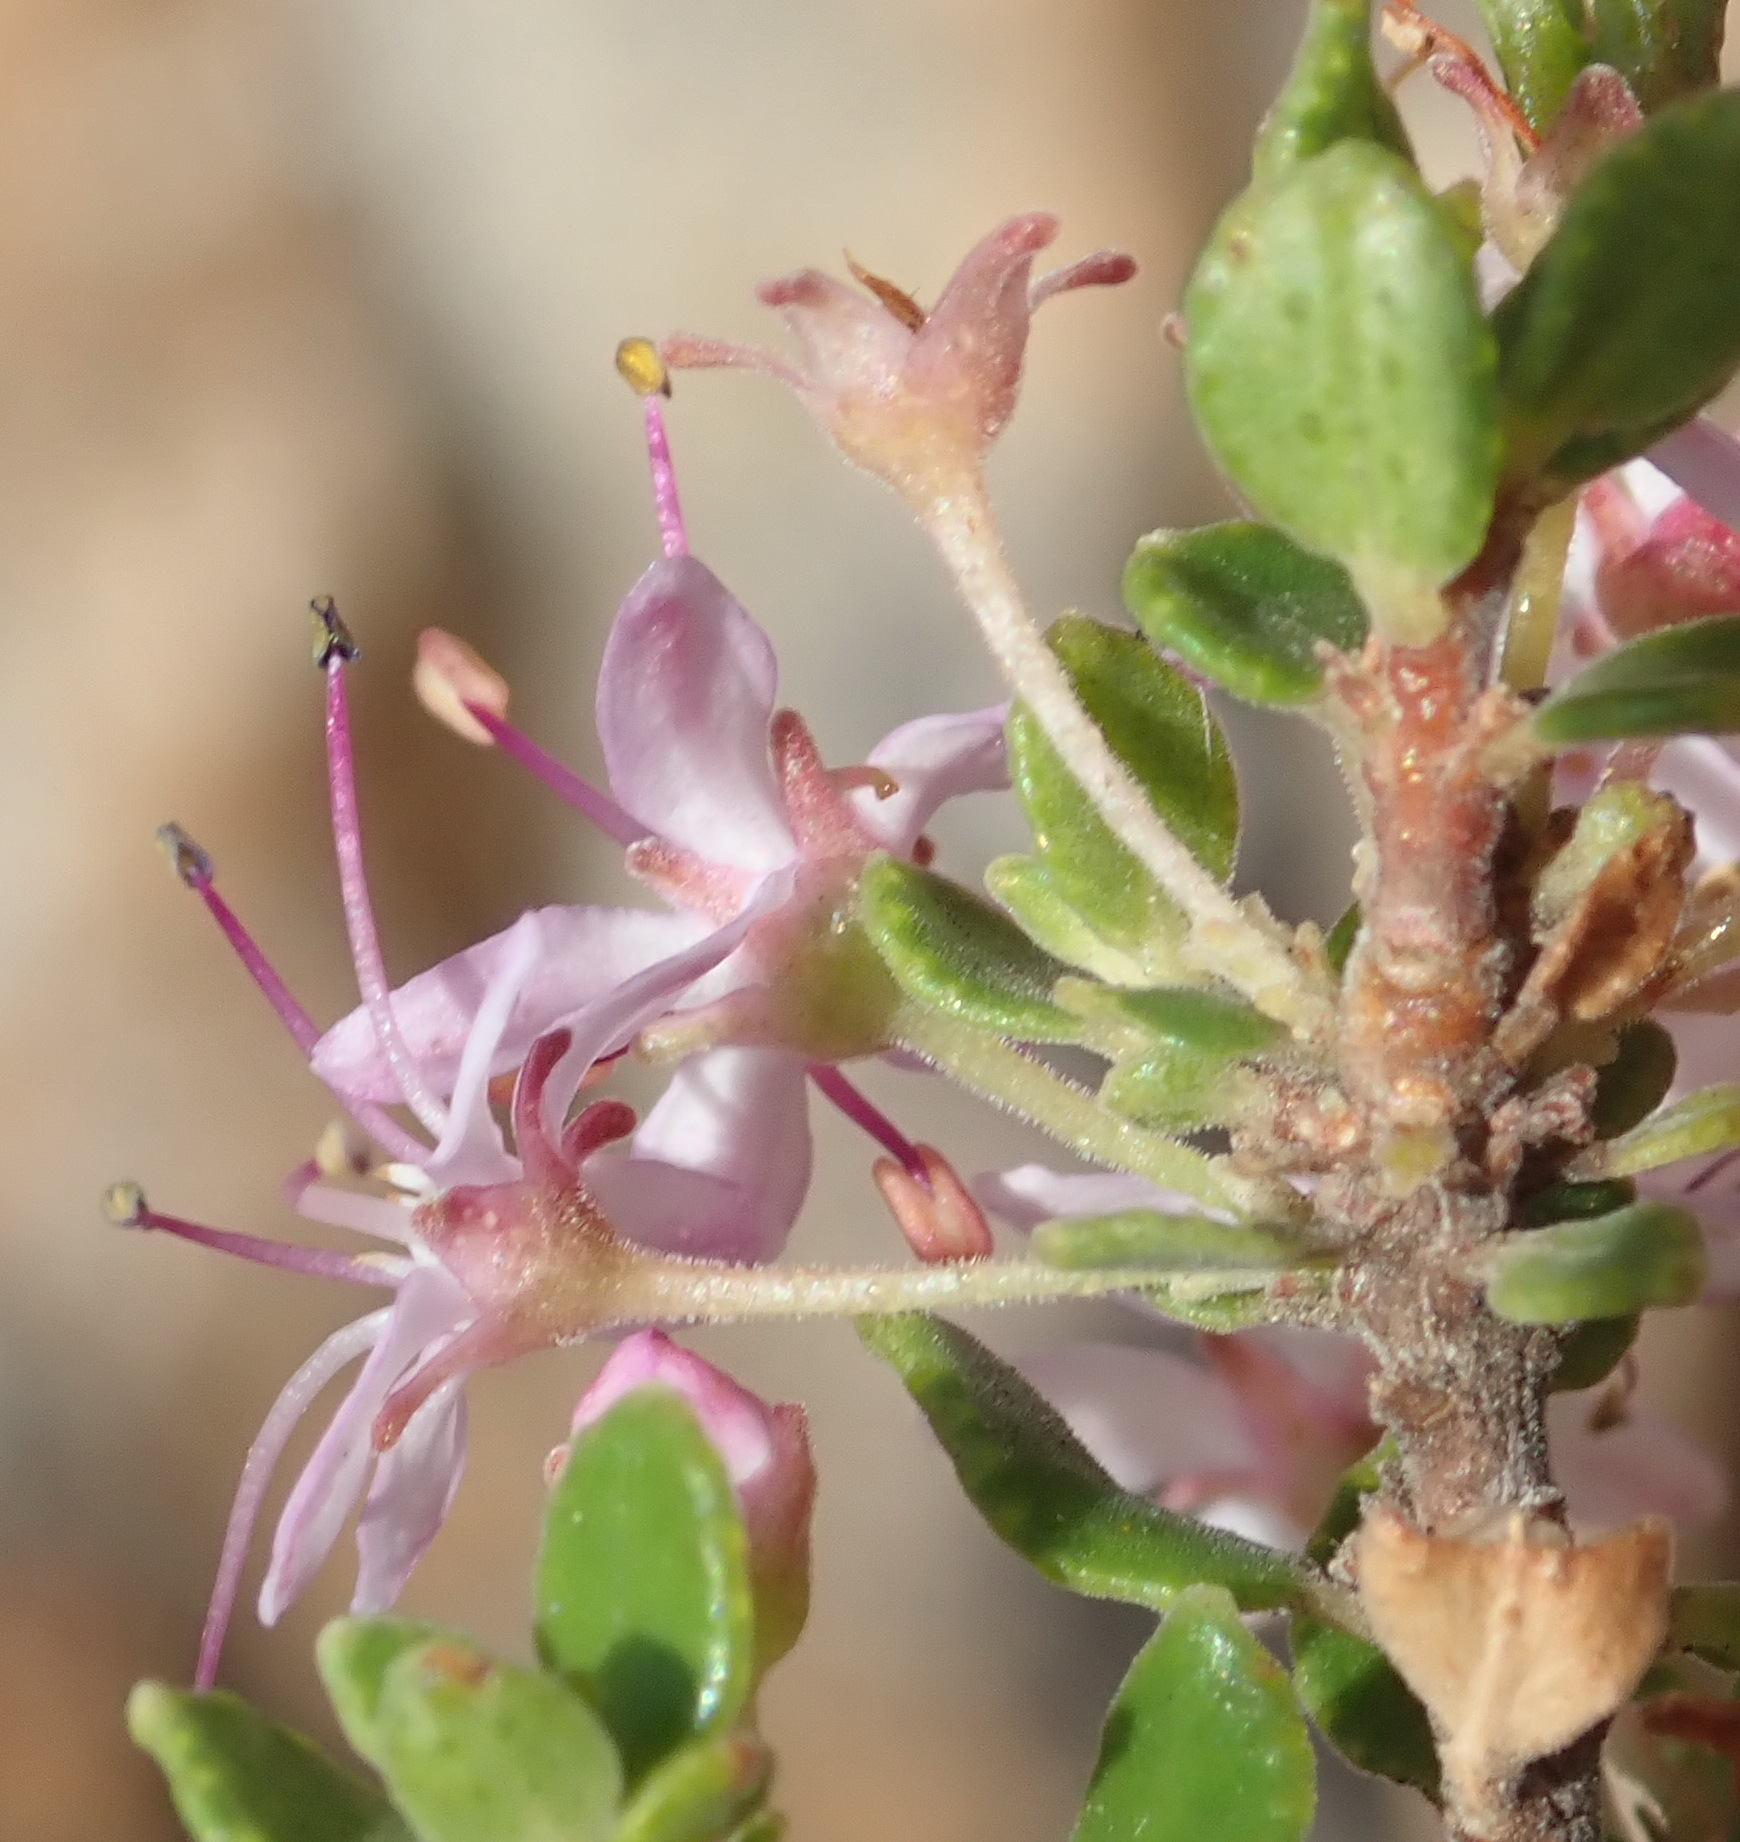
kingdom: Plantae
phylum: Tracheophyta
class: Magnoliopsida
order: Sapindales
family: Rutaceae
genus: Agathosma
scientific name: Agathosma ovata
